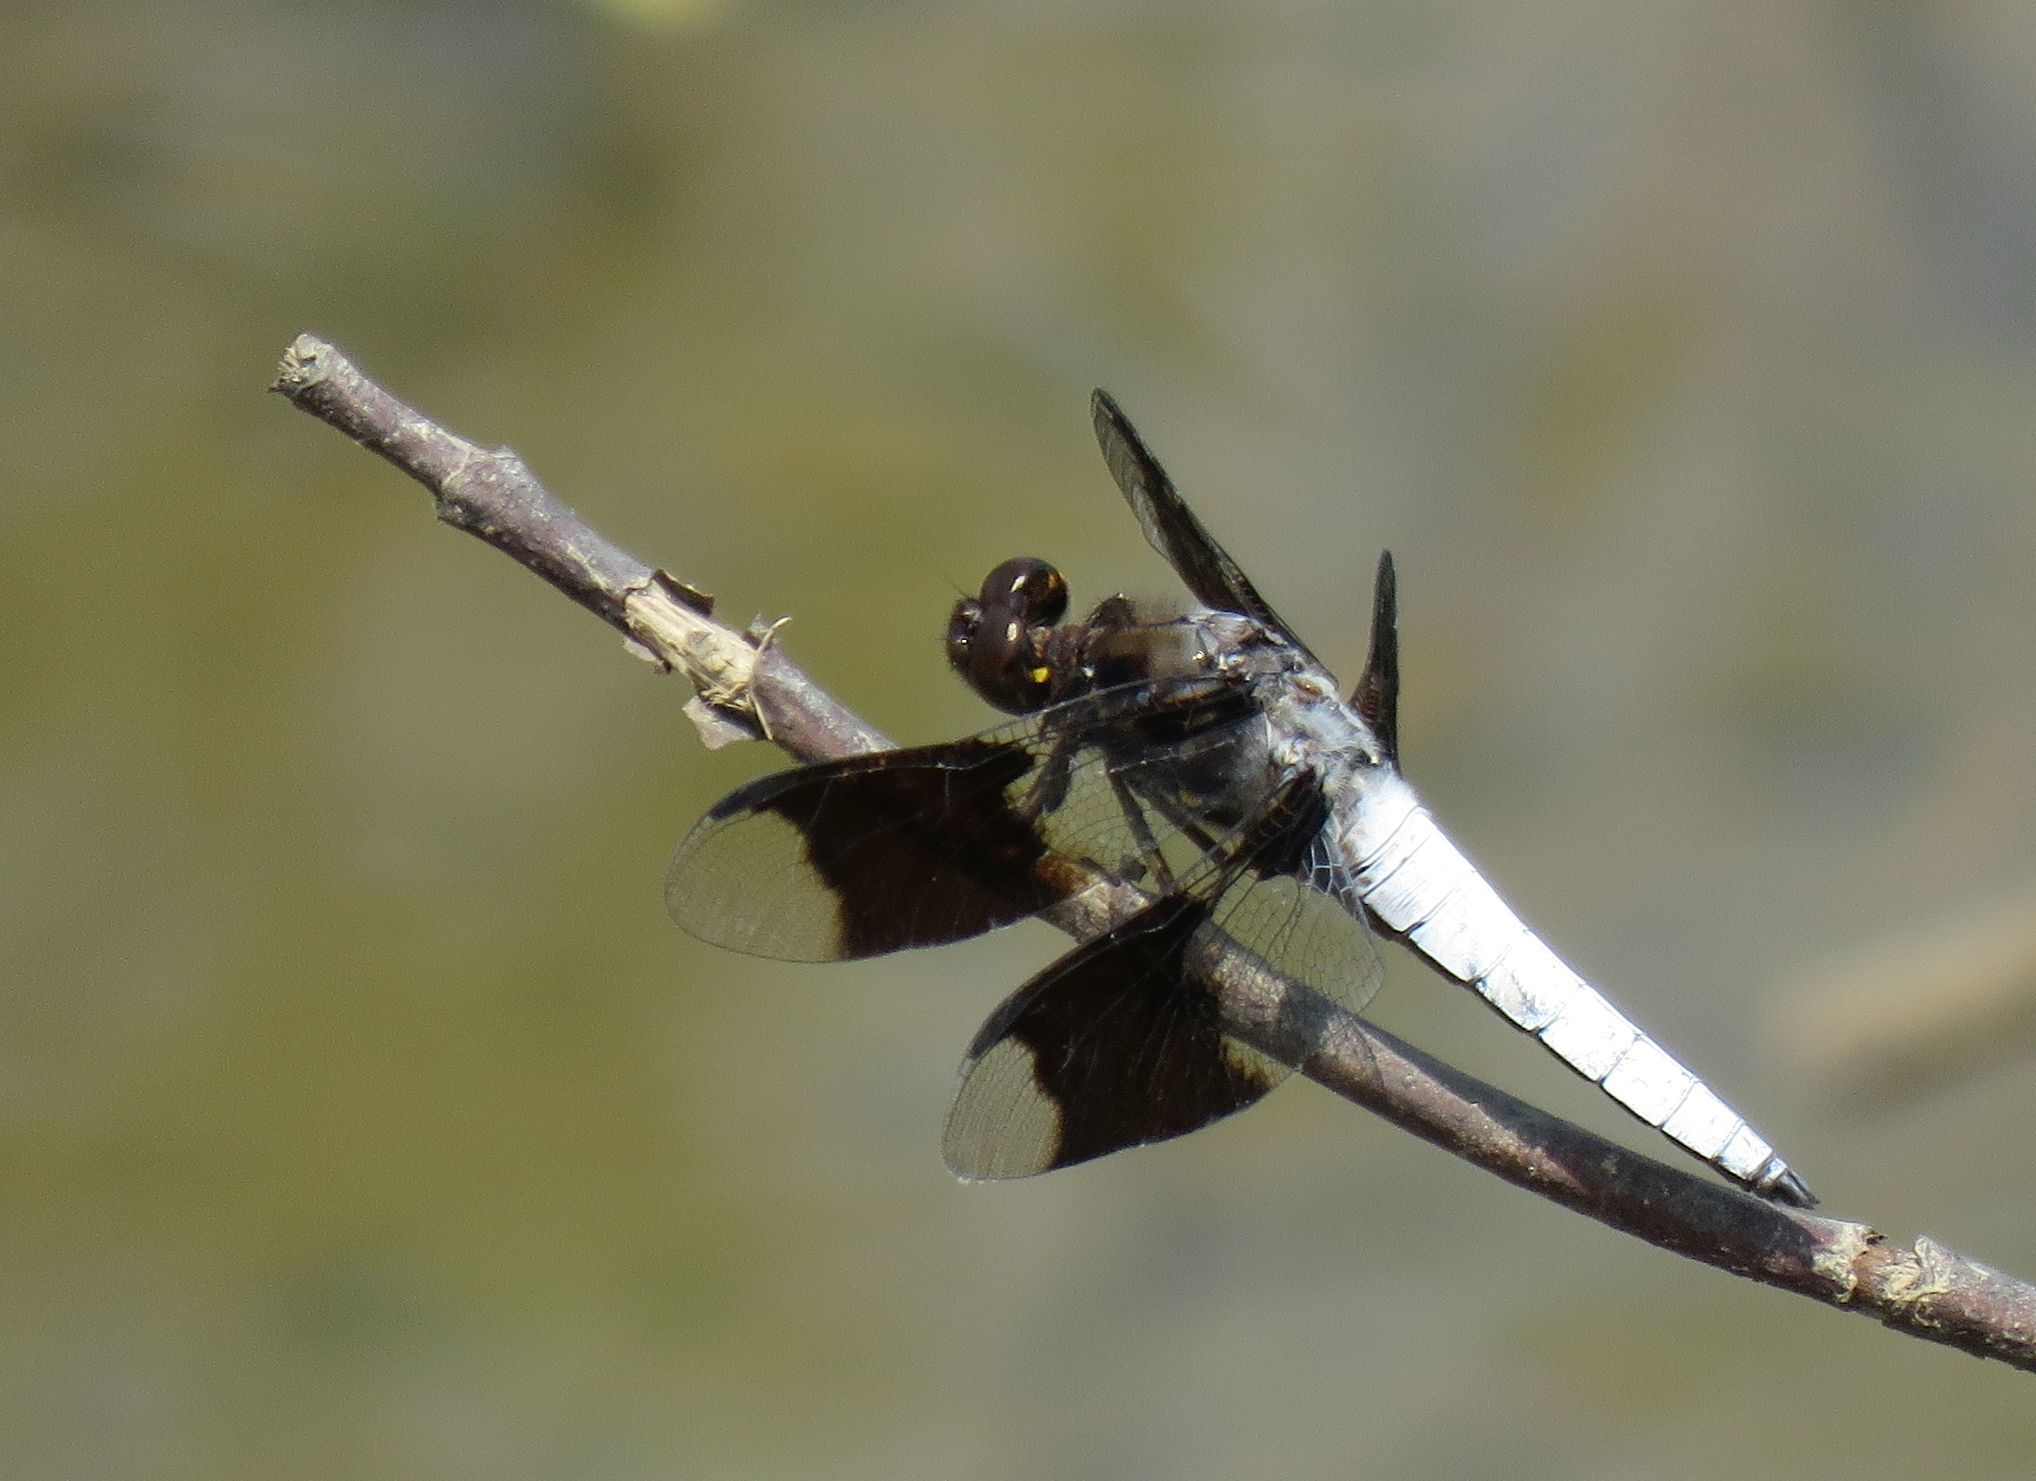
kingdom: Animalia
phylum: Arthropoda
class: Insecta
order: Odonata
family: Libellulidae
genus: Plathemis
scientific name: Plathemis lydia
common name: Common whitetail
